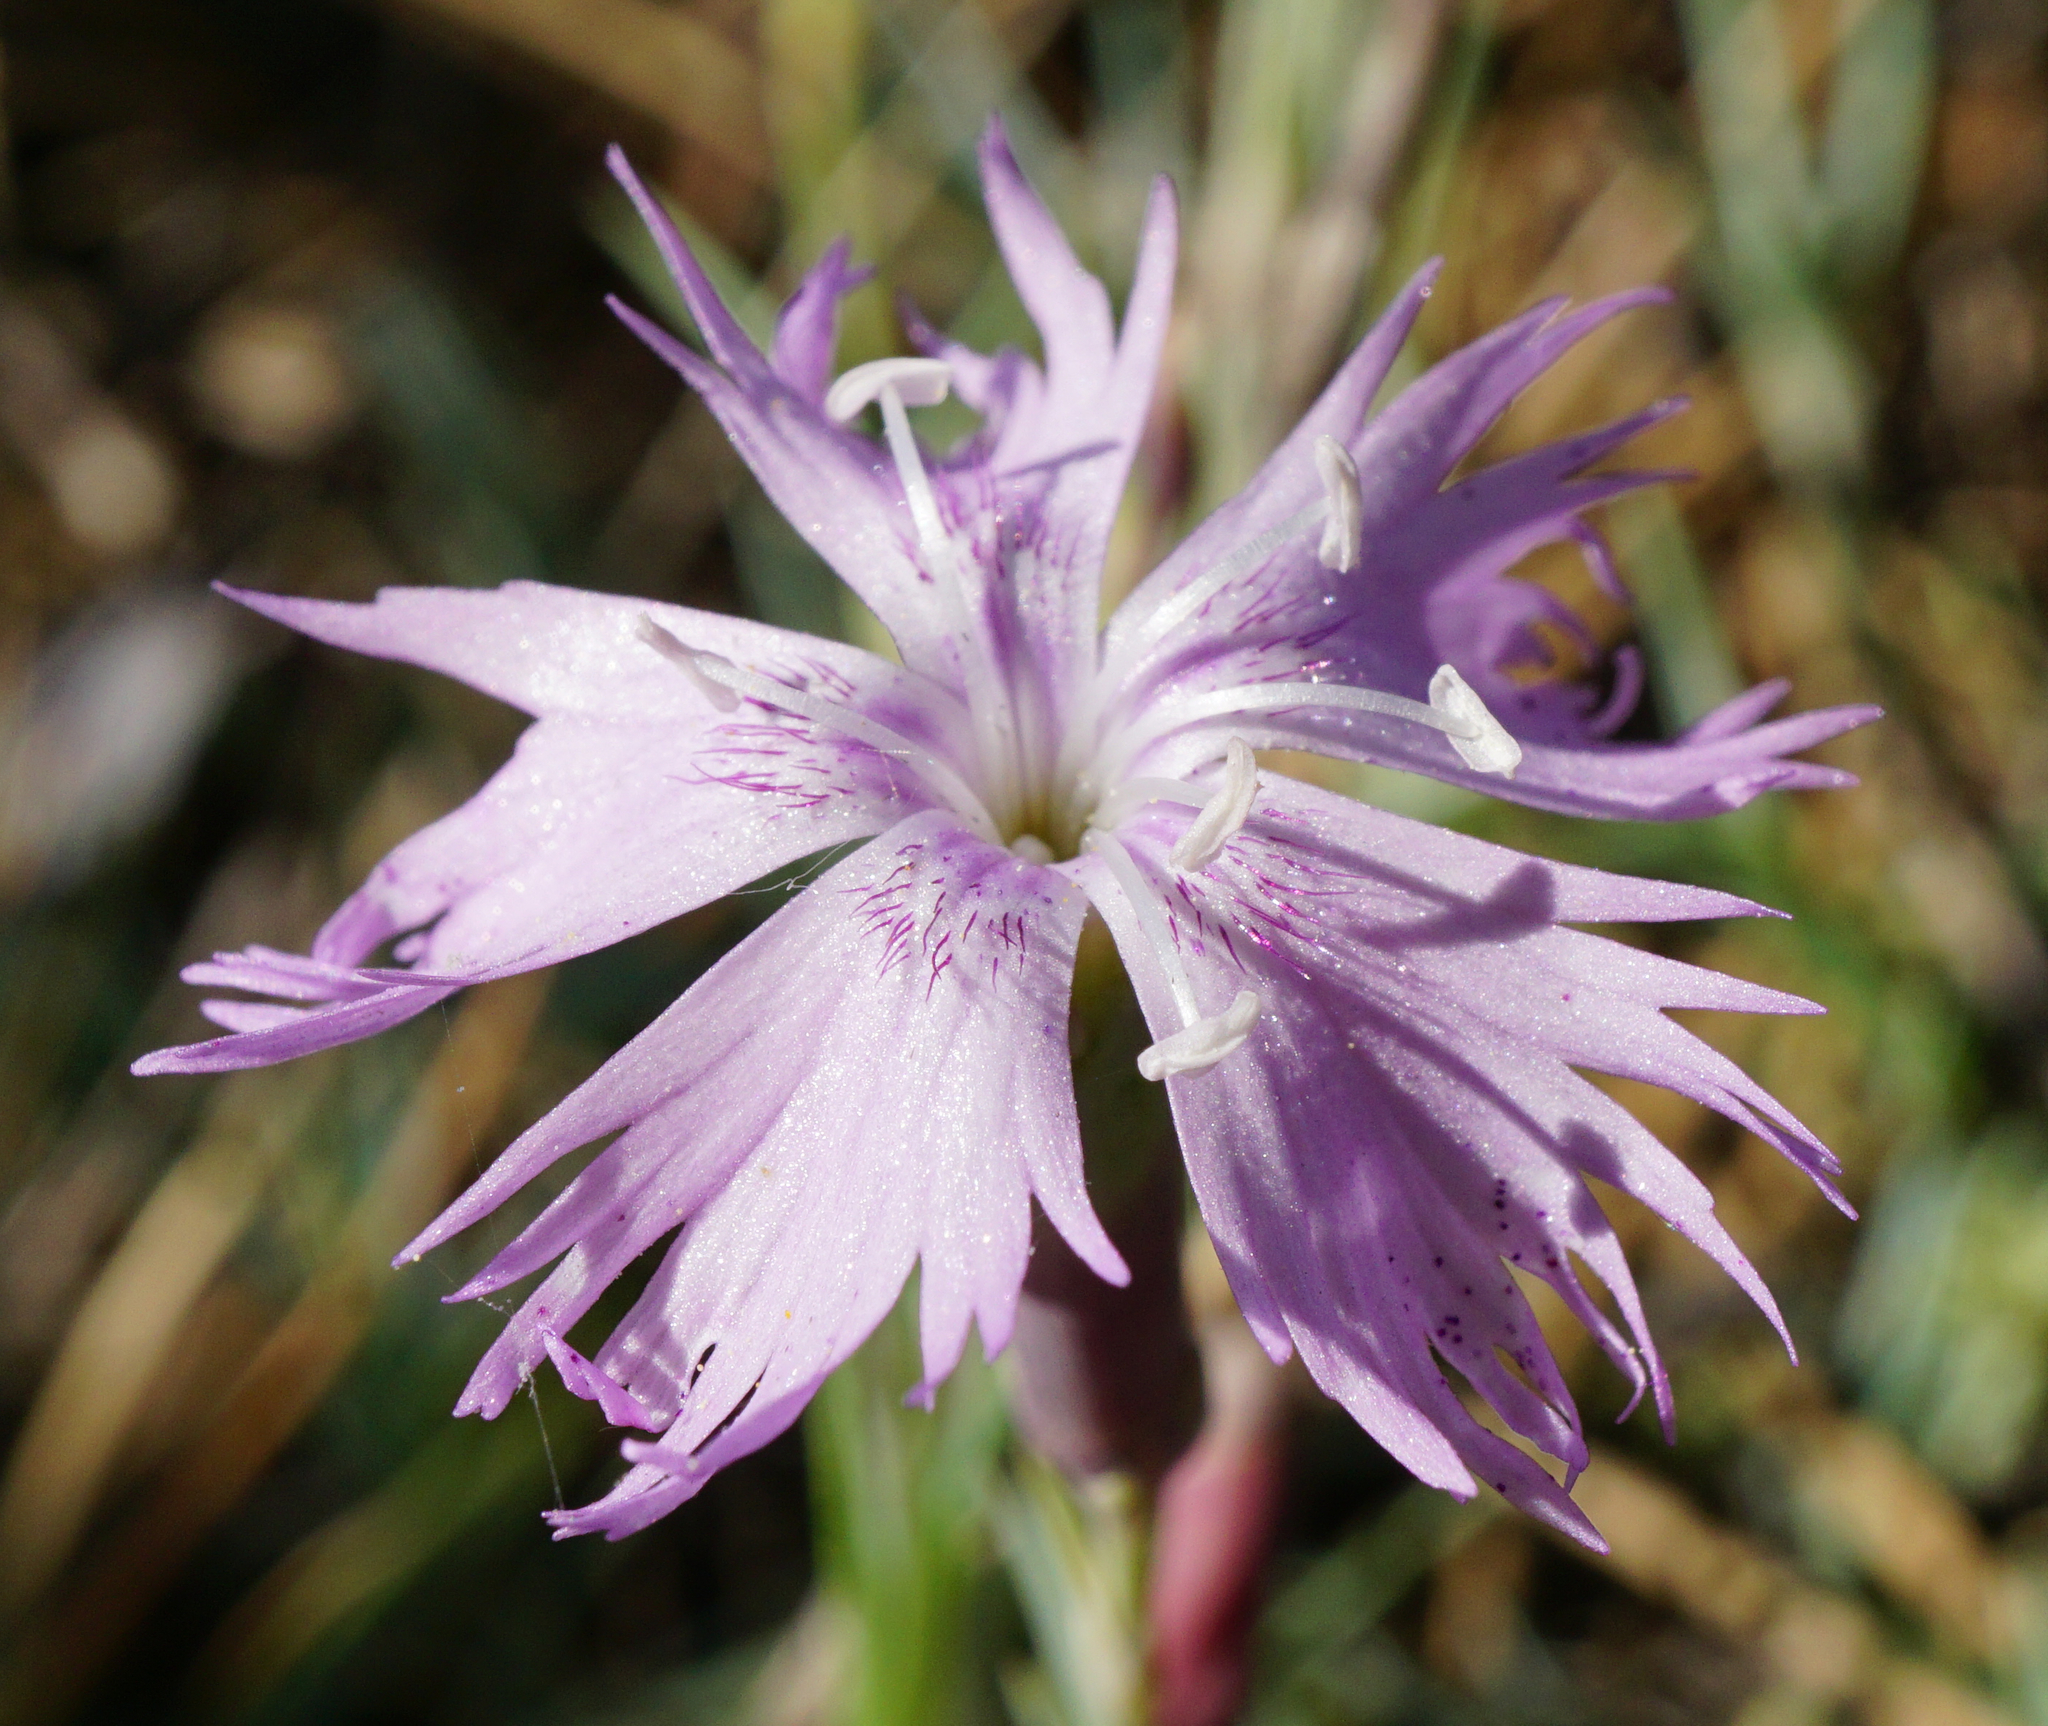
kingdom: Plantae
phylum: Tracheophyta
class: Magnoliopsida
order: Caryophyllales
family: Caryophyllaceae
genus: Dianthus
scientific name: Dianthus plumarius
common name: Pink
